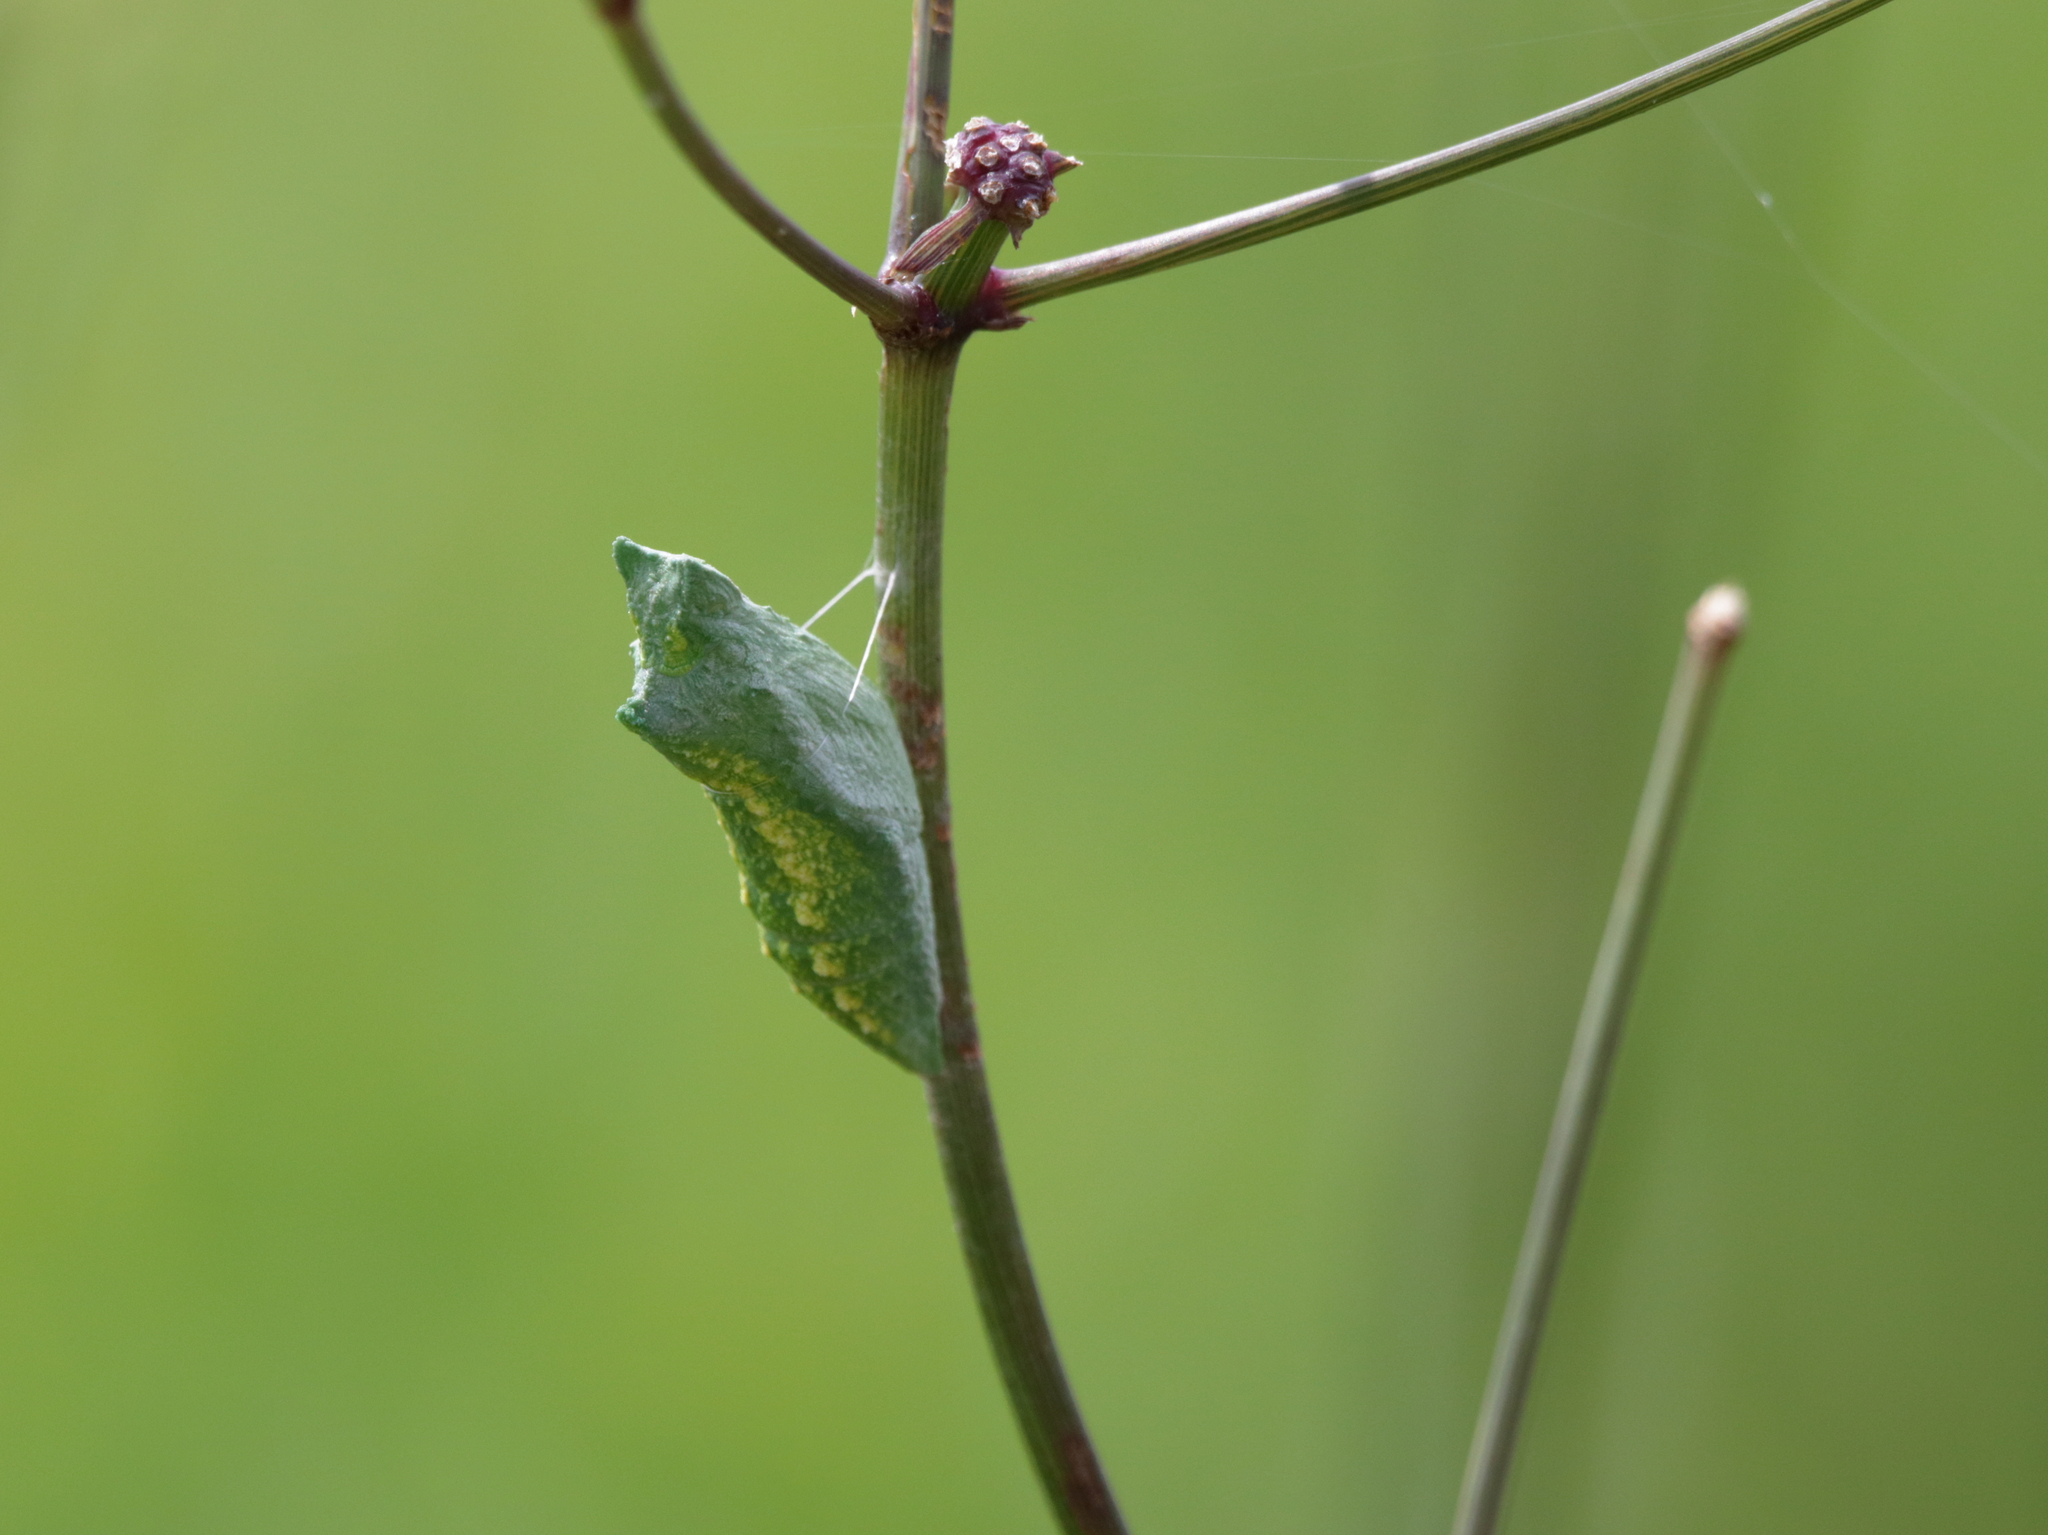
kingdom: Animalia
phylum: Arthropoda
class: Insecta
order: Lepidoptera
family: Papilionidae
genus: Papilio
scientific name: Papilio polyxenes
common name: Black swallowtail
